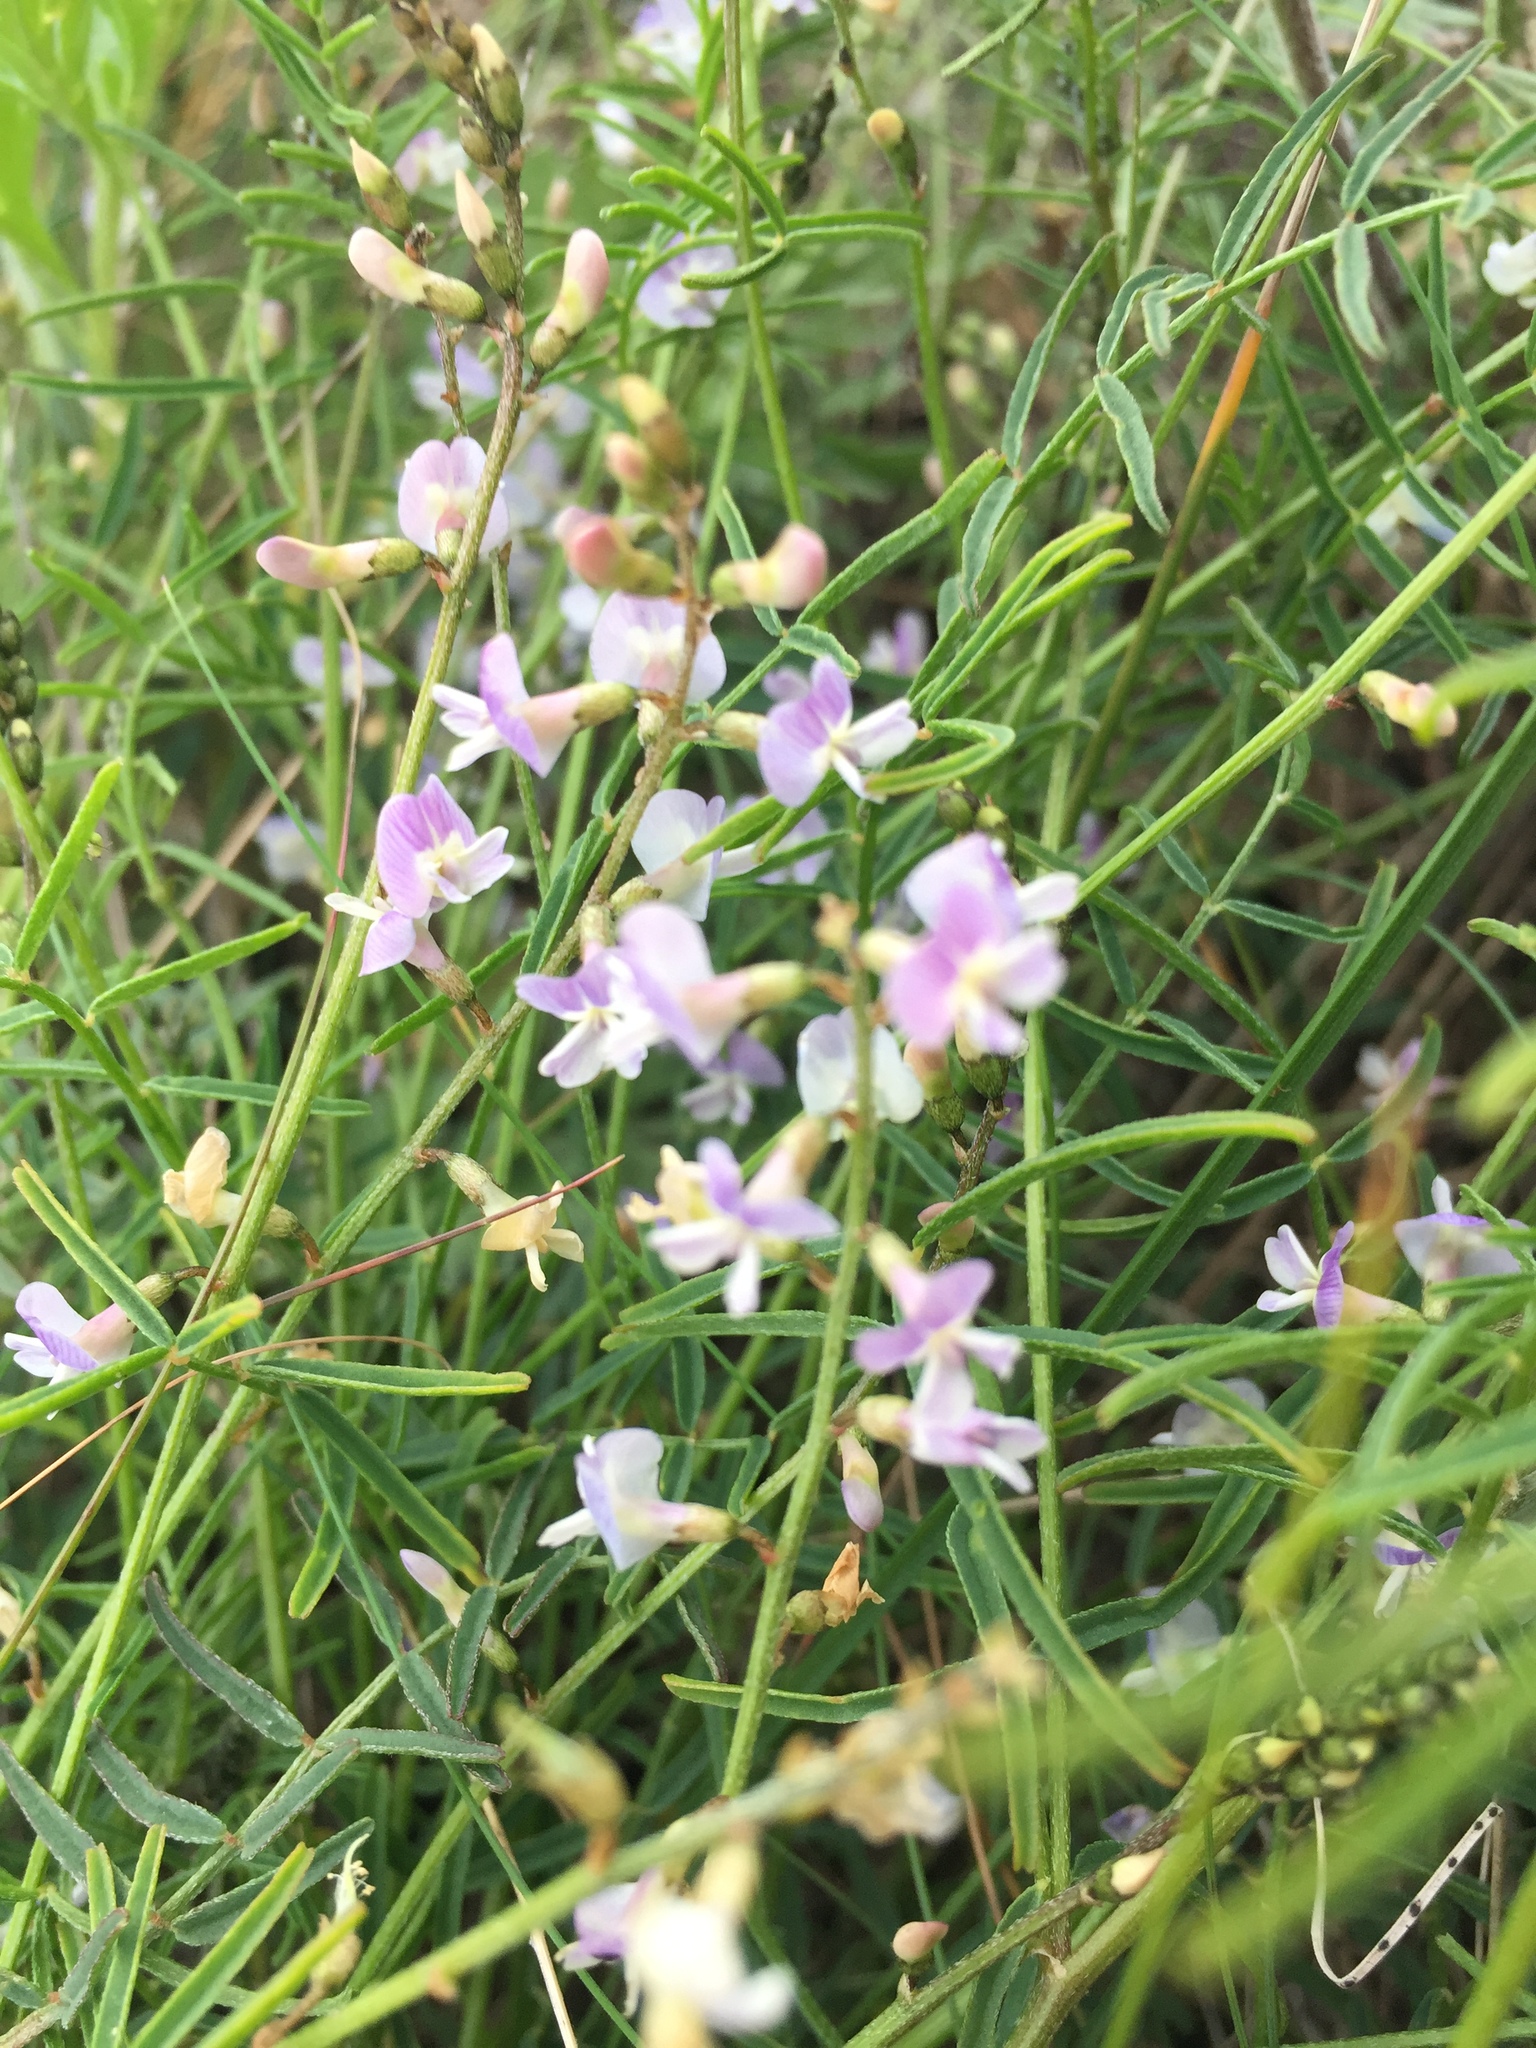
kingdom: Plantae
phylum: Tracheophyta
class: Magnoliopsida
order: Fabales
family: Fabaceae
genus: Astragalus
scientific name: Astragalus austriacus
